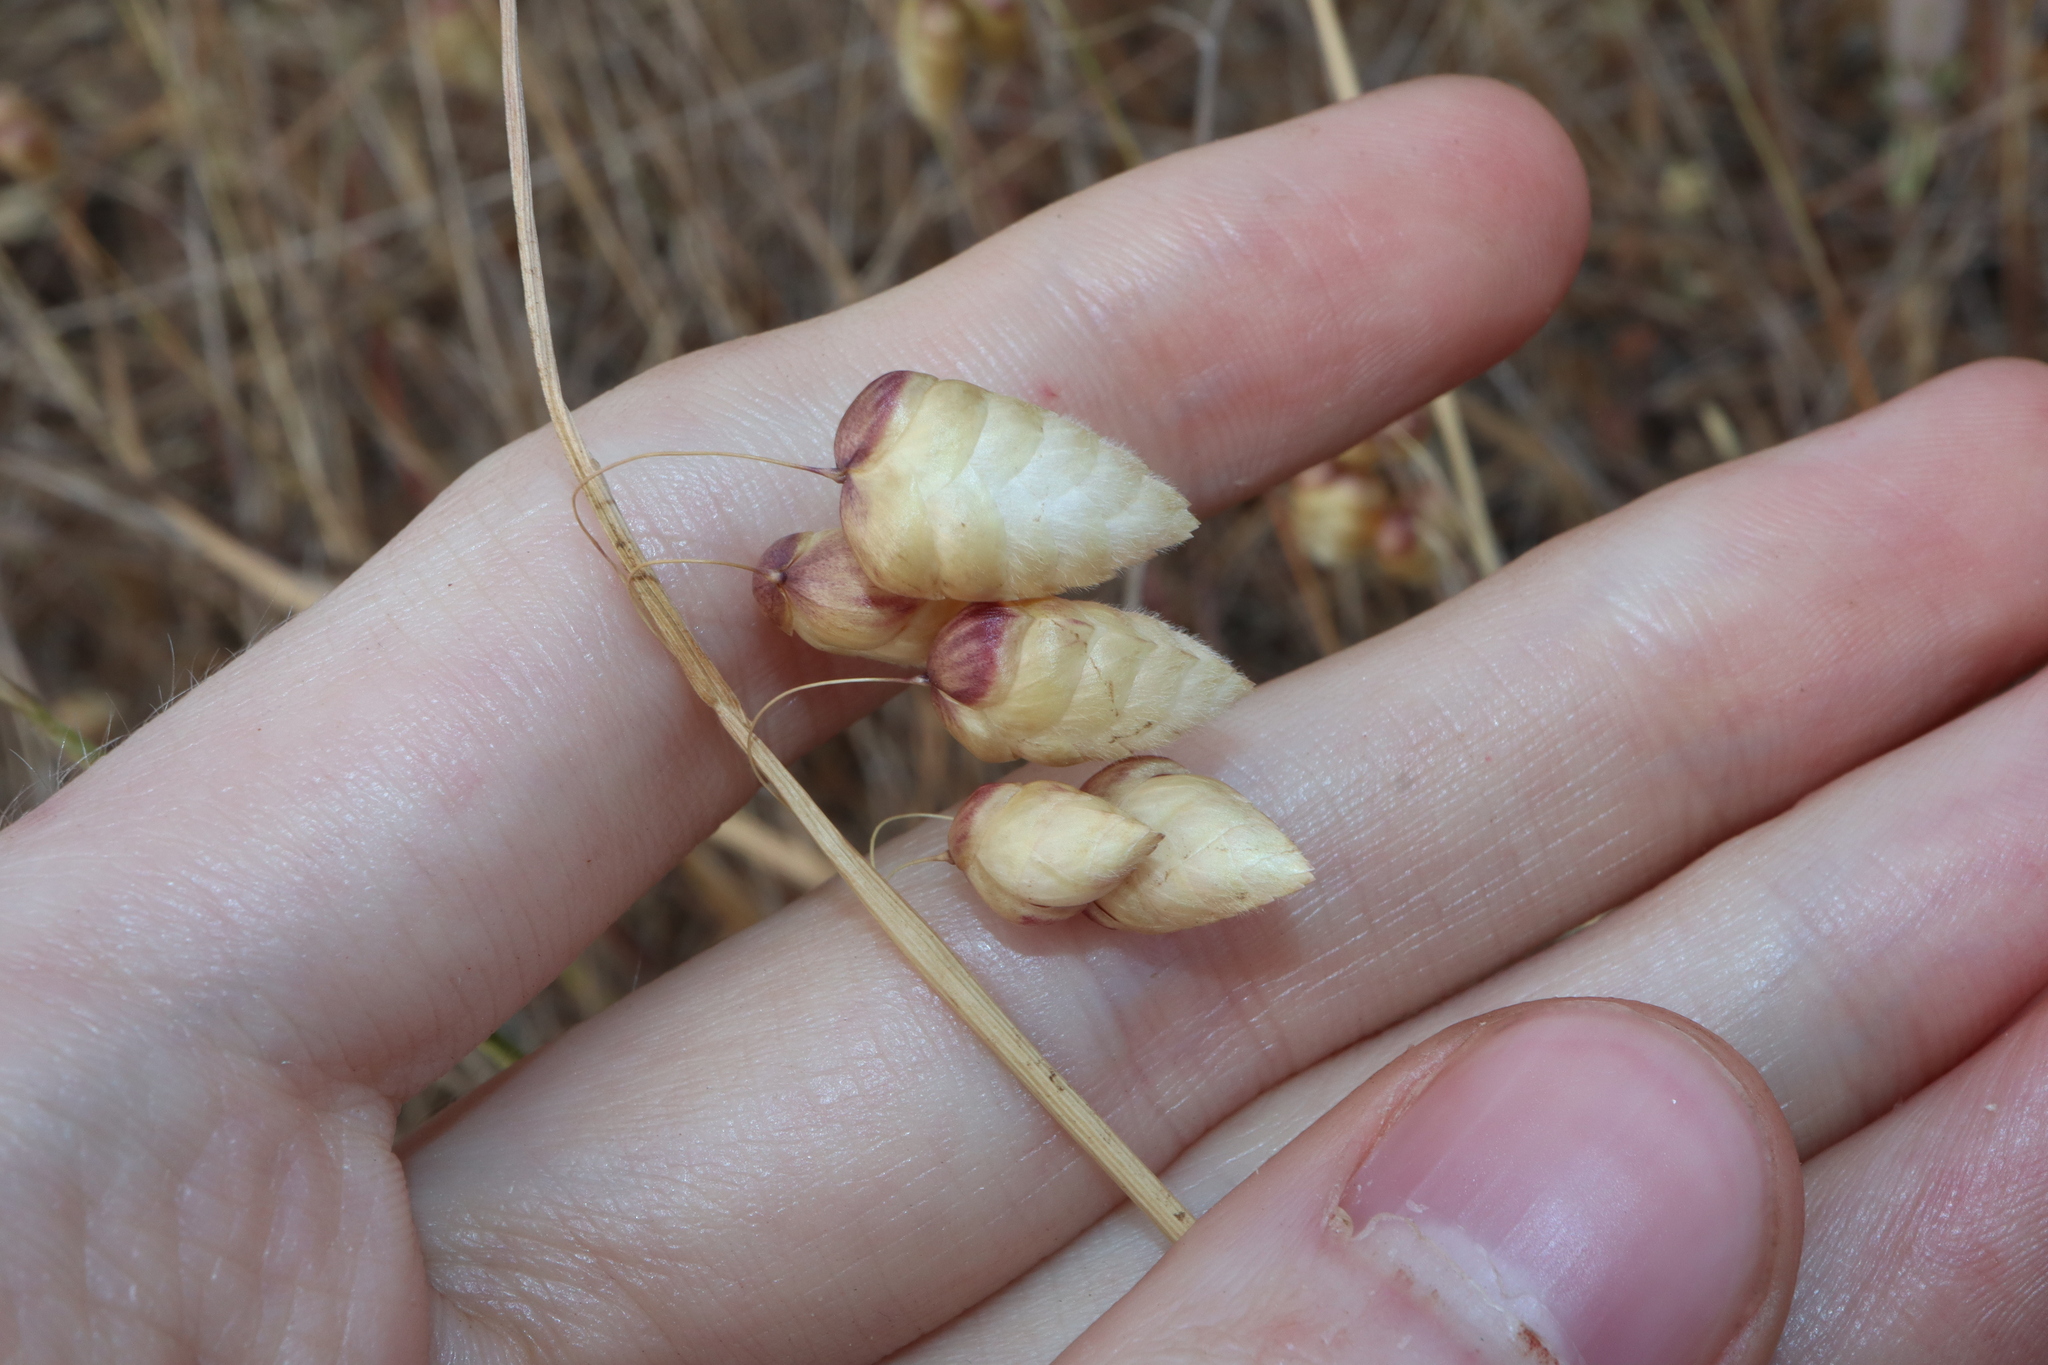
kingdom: Plantae
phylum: Tracheophyta
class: Liliopsida
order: Poales
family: Poaceae
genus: Briza
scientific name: Briza maxima
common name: Big quakinggrass
